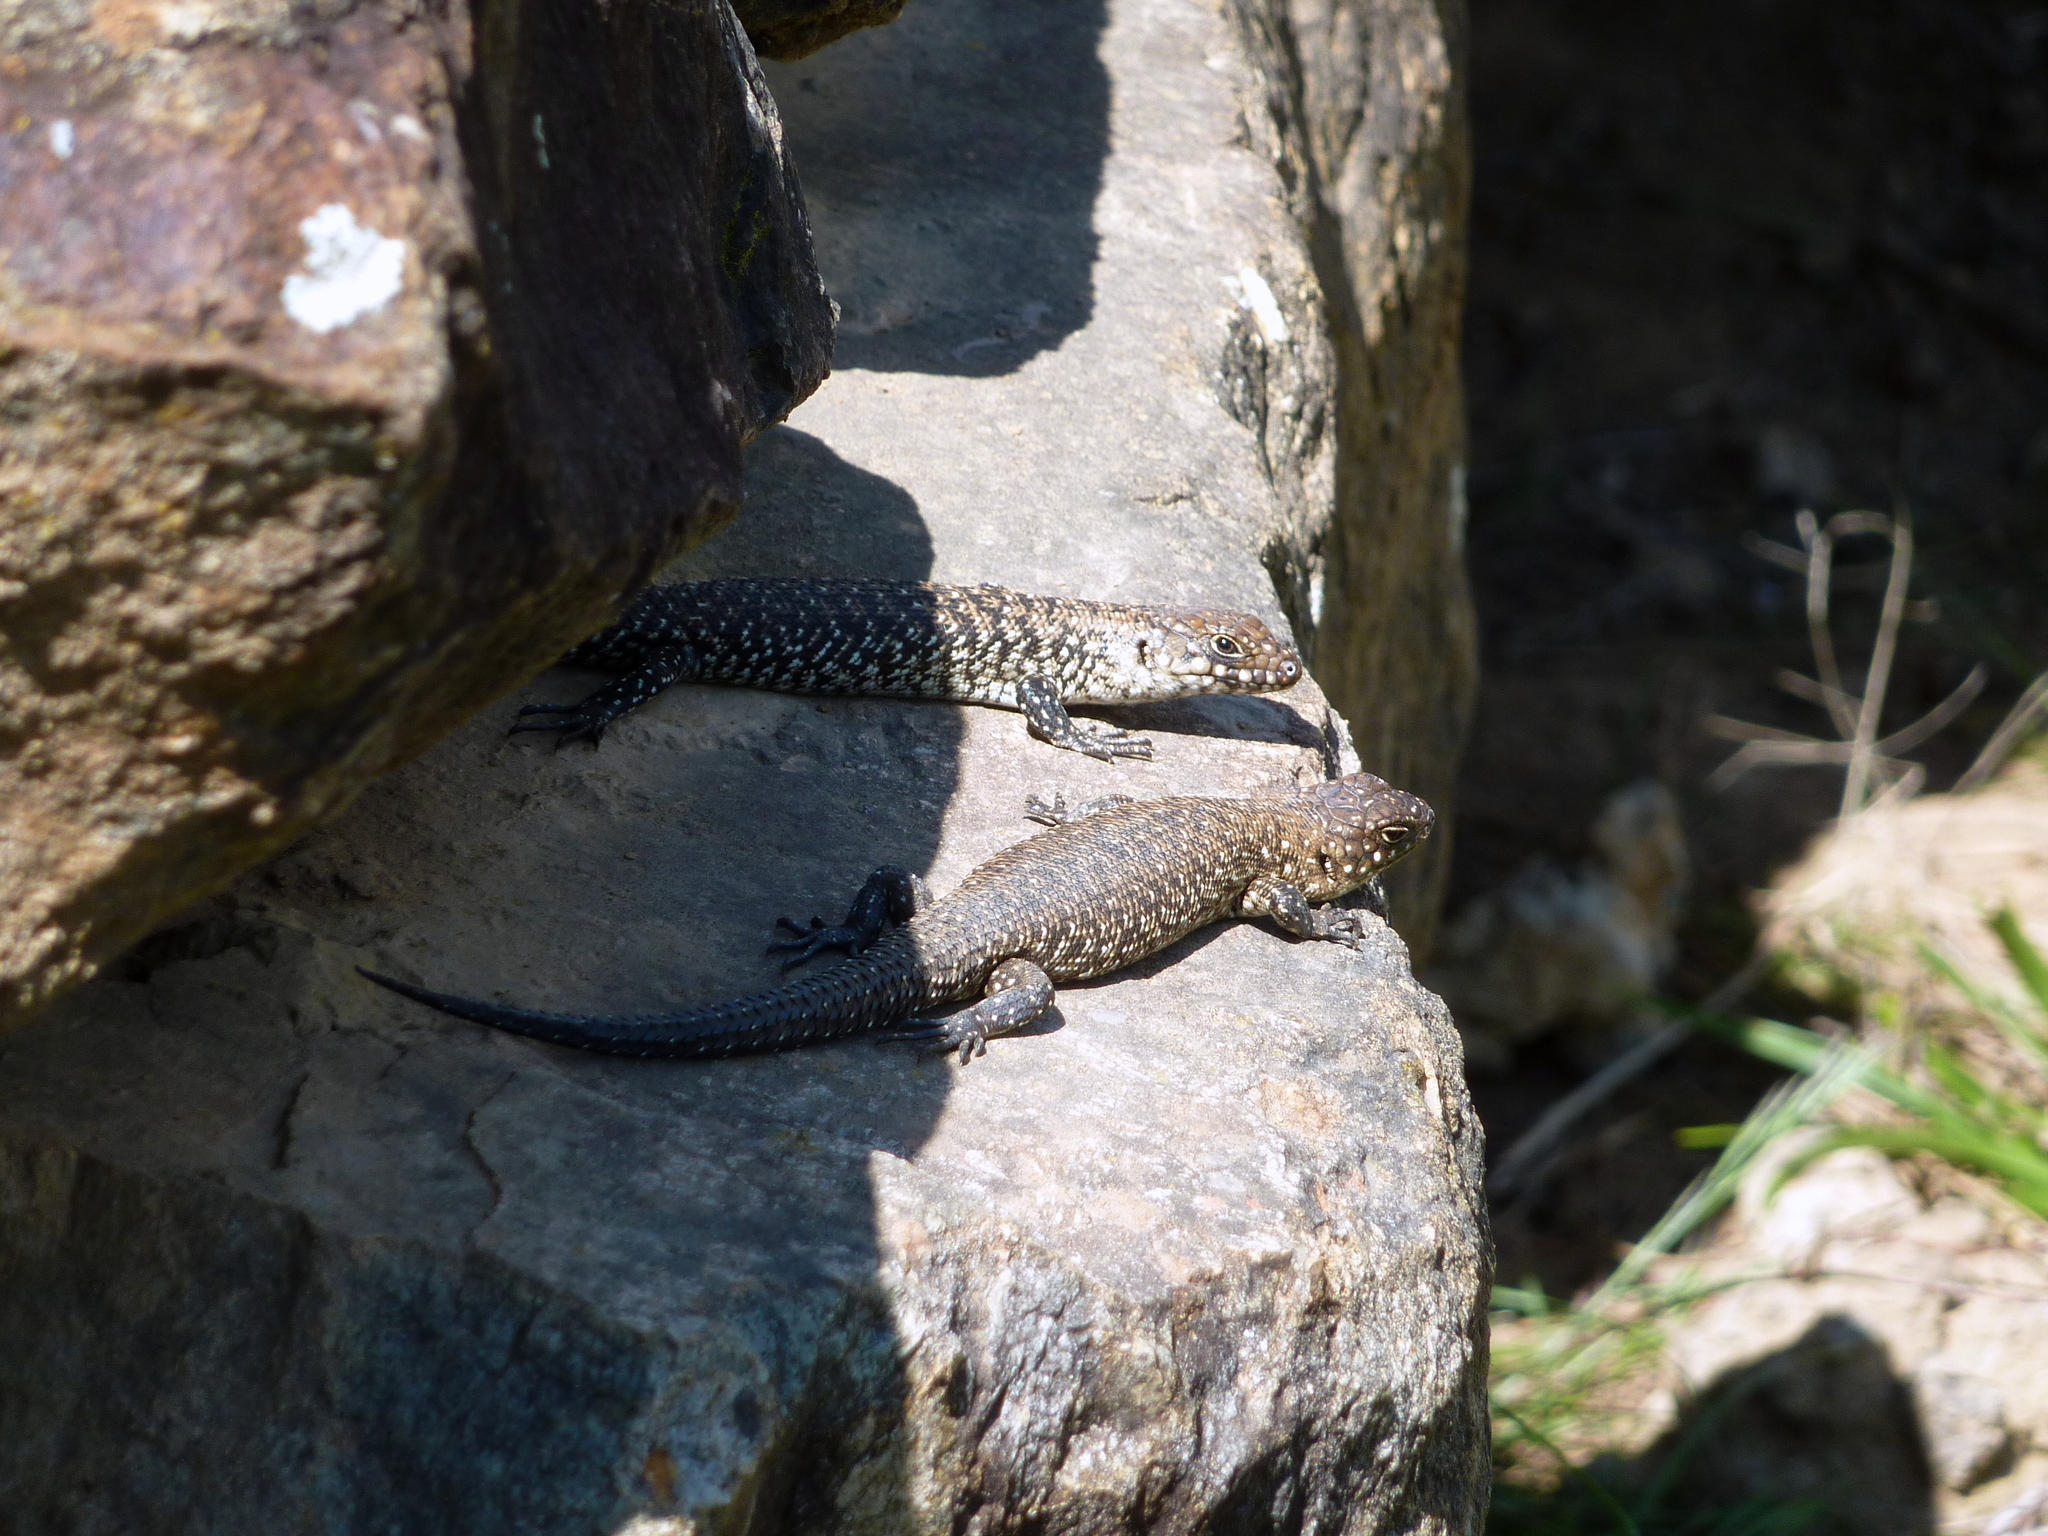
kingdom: Animalia
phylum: Chordata
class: Squamata
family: Scincidae
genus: Egernia
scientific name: Egernia cunninghami
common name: Cunningham's skink
